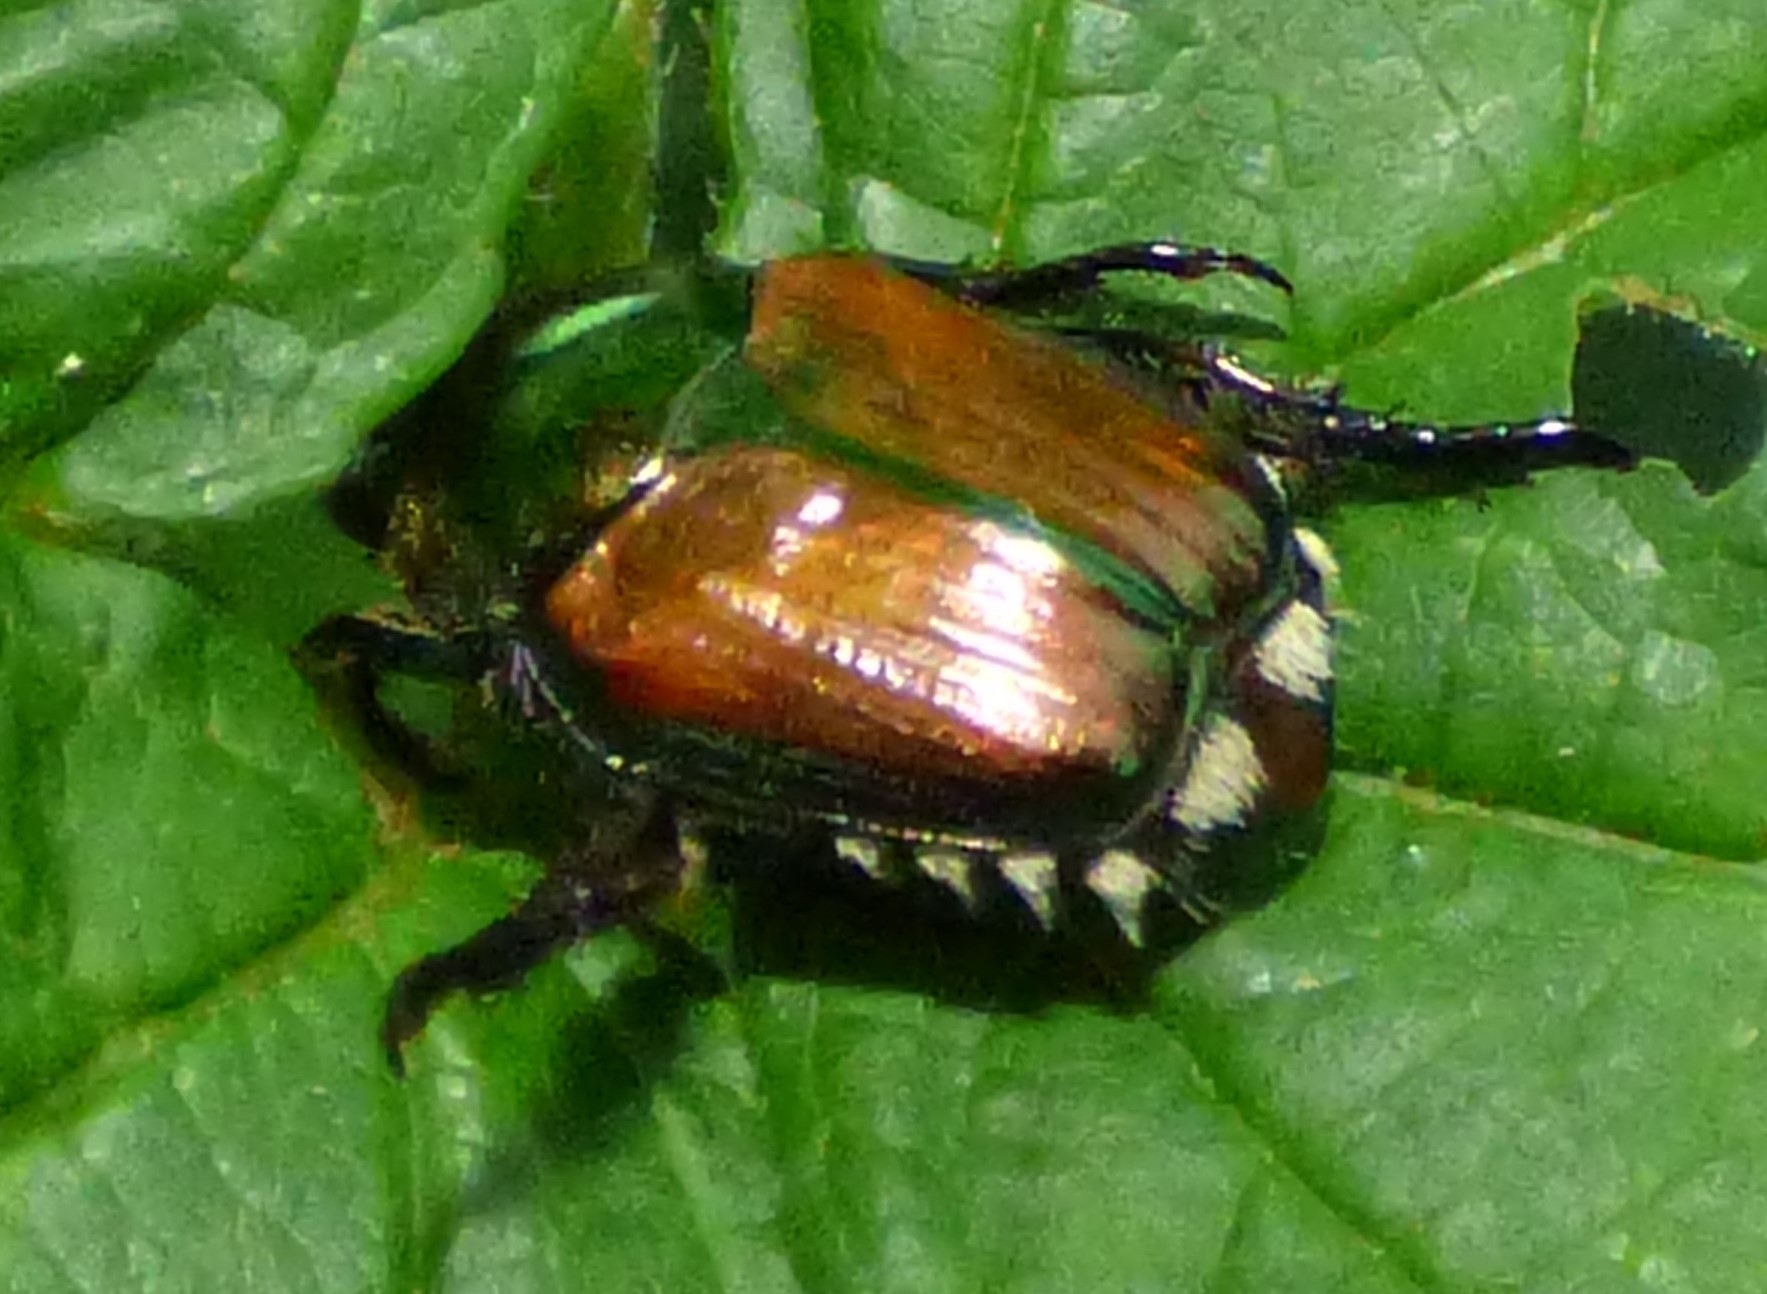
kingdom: Animalia
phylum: Arthropoda
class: Insecta
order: Coleoptera
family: Scarabaeidae
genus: Popillia
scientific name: Popillia japonica
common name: Japanese beetle
